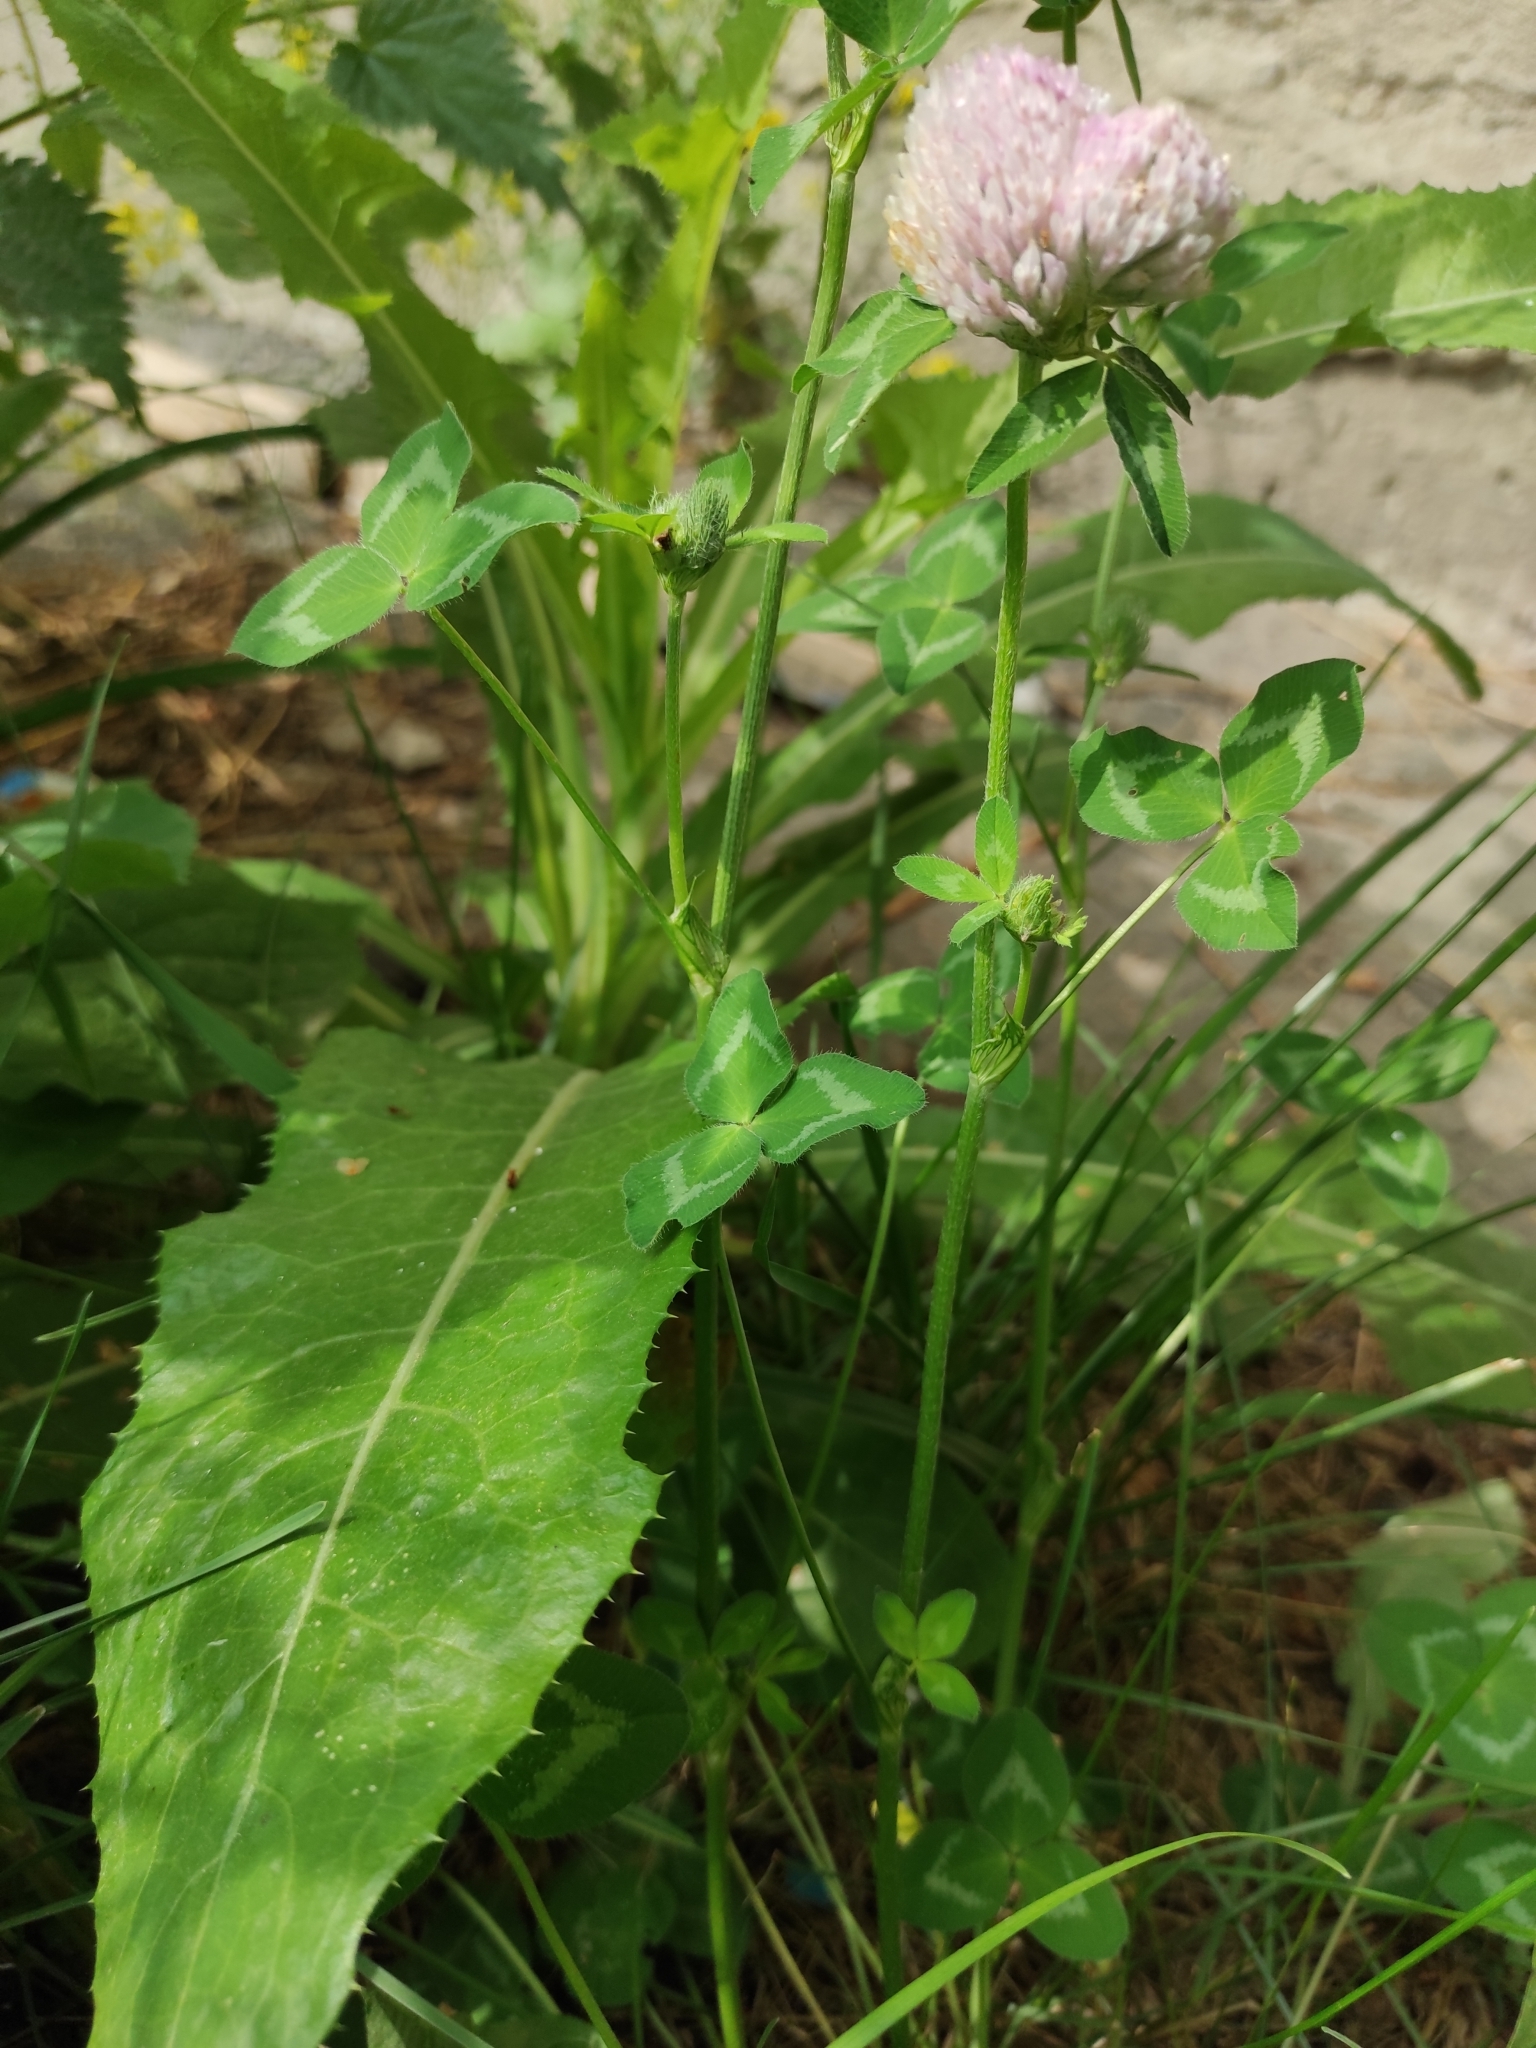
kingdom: Plantae
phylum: Tracheophyta
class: Magnoliopsida
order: Fabales
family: Fabaceae
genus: Trifolium
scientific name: Trifolium pratense
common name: Red clover
